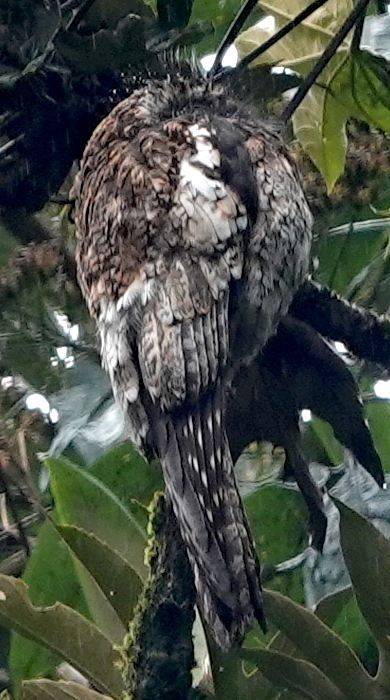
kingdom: Animalia
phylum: Chordata
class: Aves
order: Nyctibiiformes
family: Nyctibiidae
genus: Nyctibius
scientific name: Nyctibius maculosus
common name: Andean potoo
